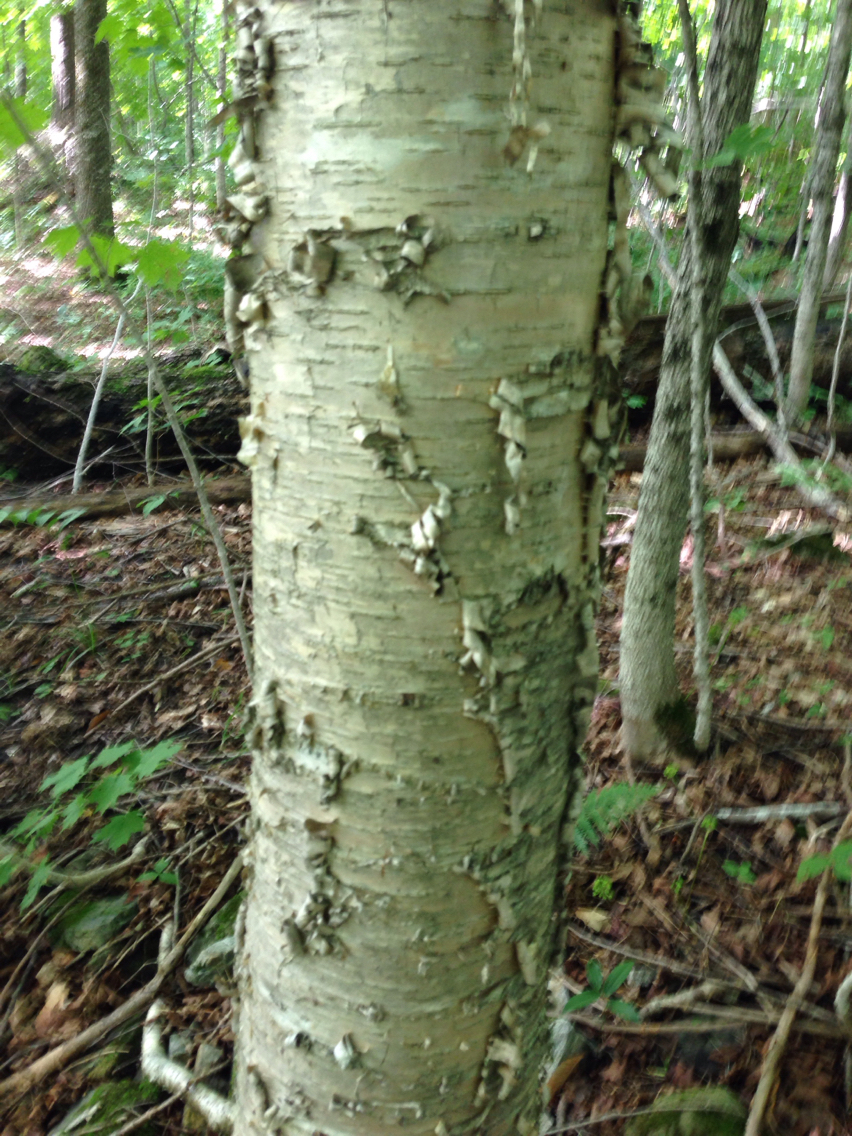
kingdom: Plantae
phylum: Tracheophyta
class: Magnoliopsida
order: Fagales
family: Betulaceae
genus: Betula
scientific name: Betula alleghaniensis
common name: Yellow birch
